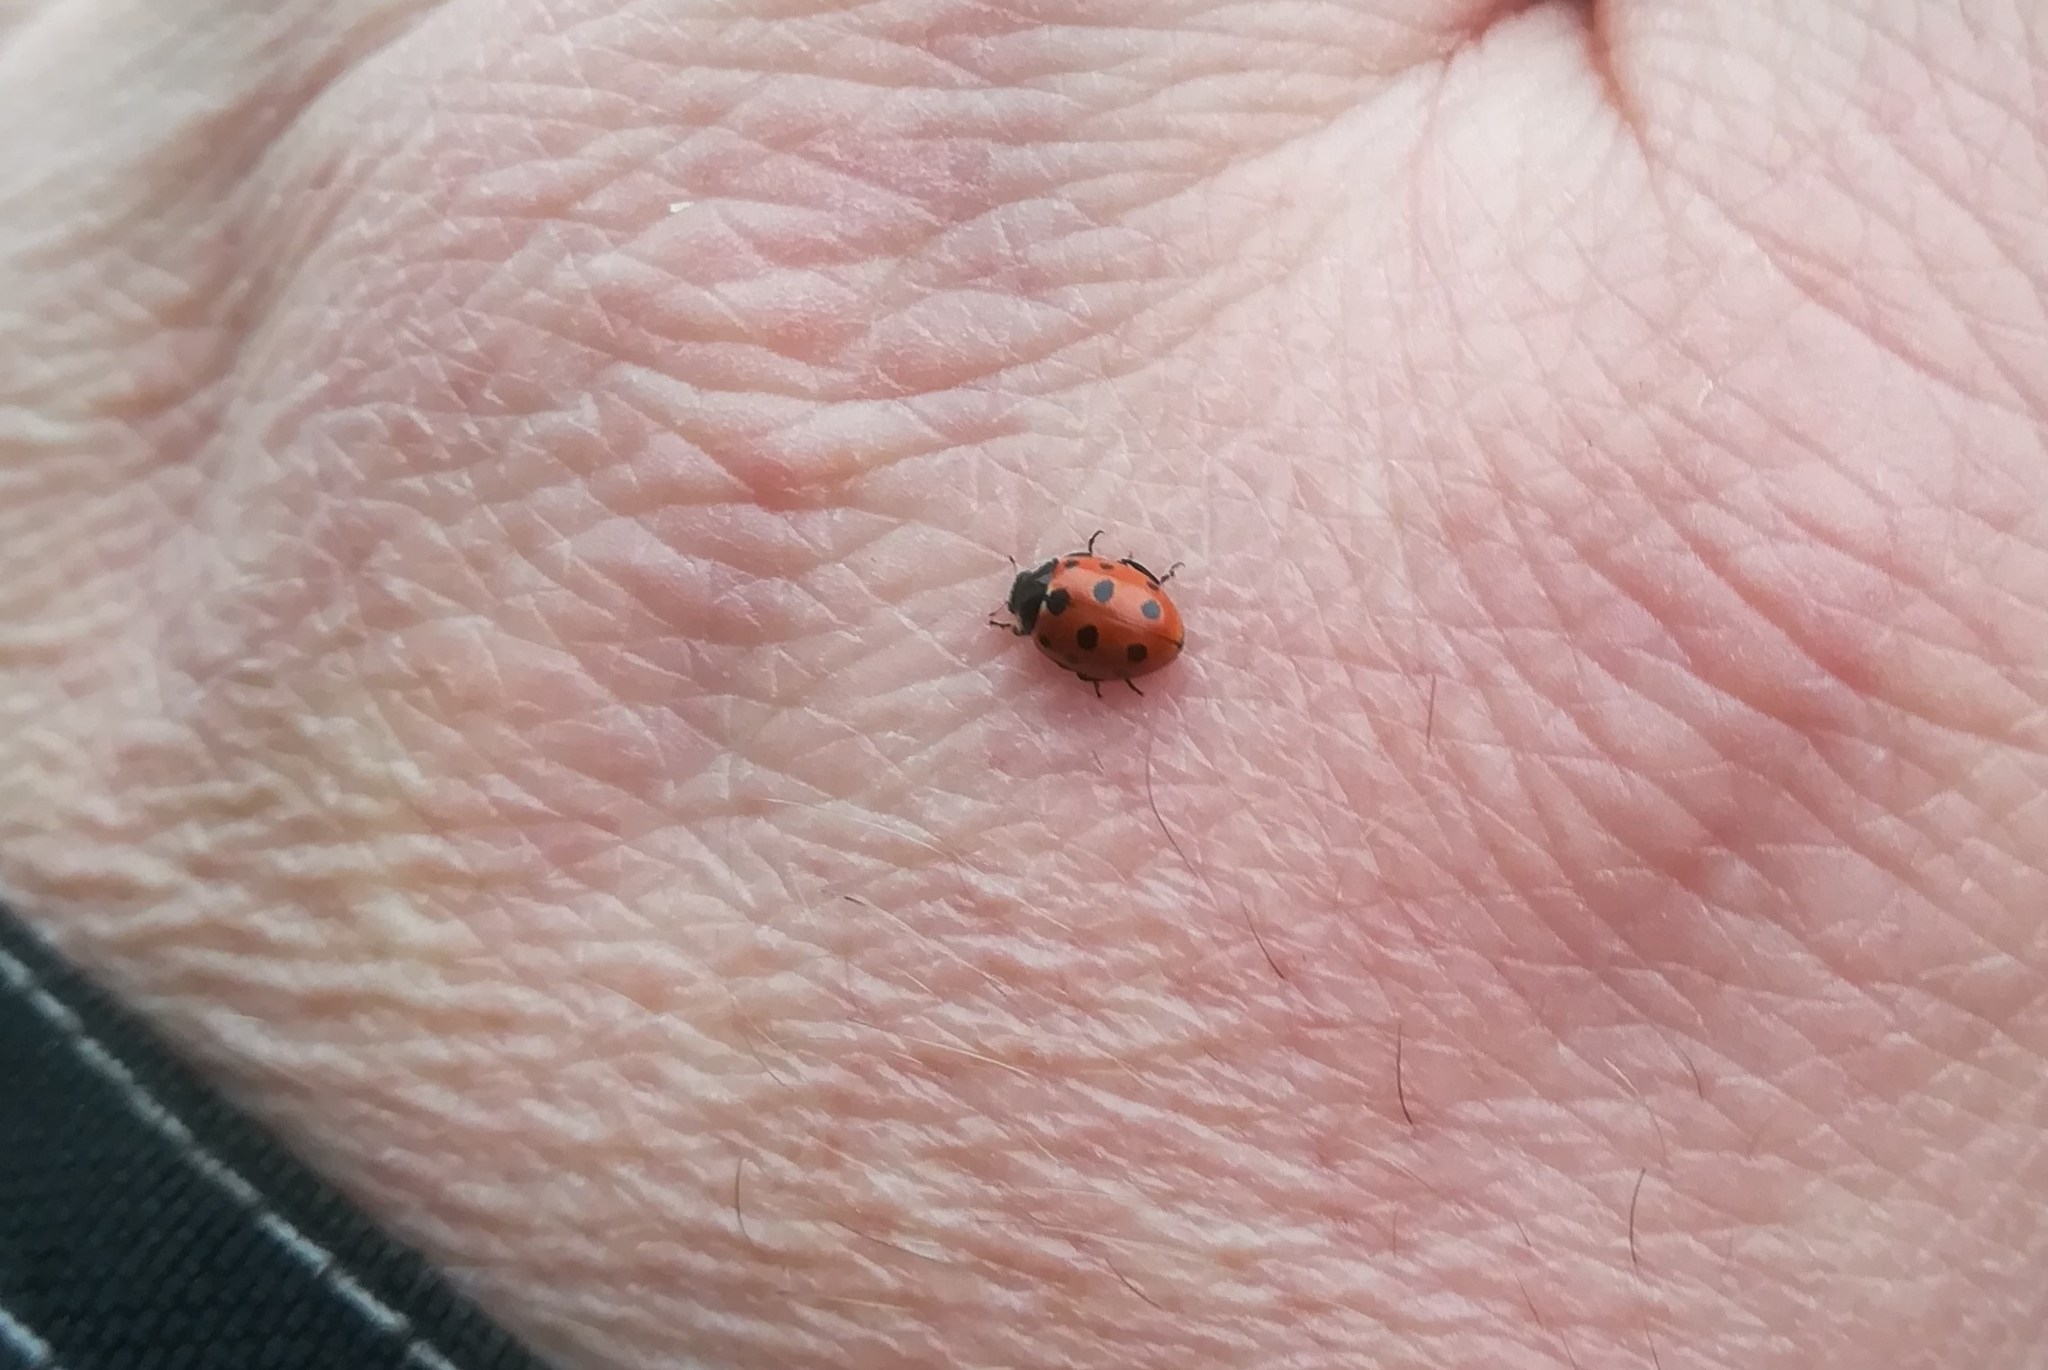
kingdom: Animalia
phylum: Arthropoda
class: Insecta
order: Coleoptera
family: Coccinellidae
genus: Coccinella
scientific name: Coccinella undecimpunctata
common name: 11-spot ladybird
